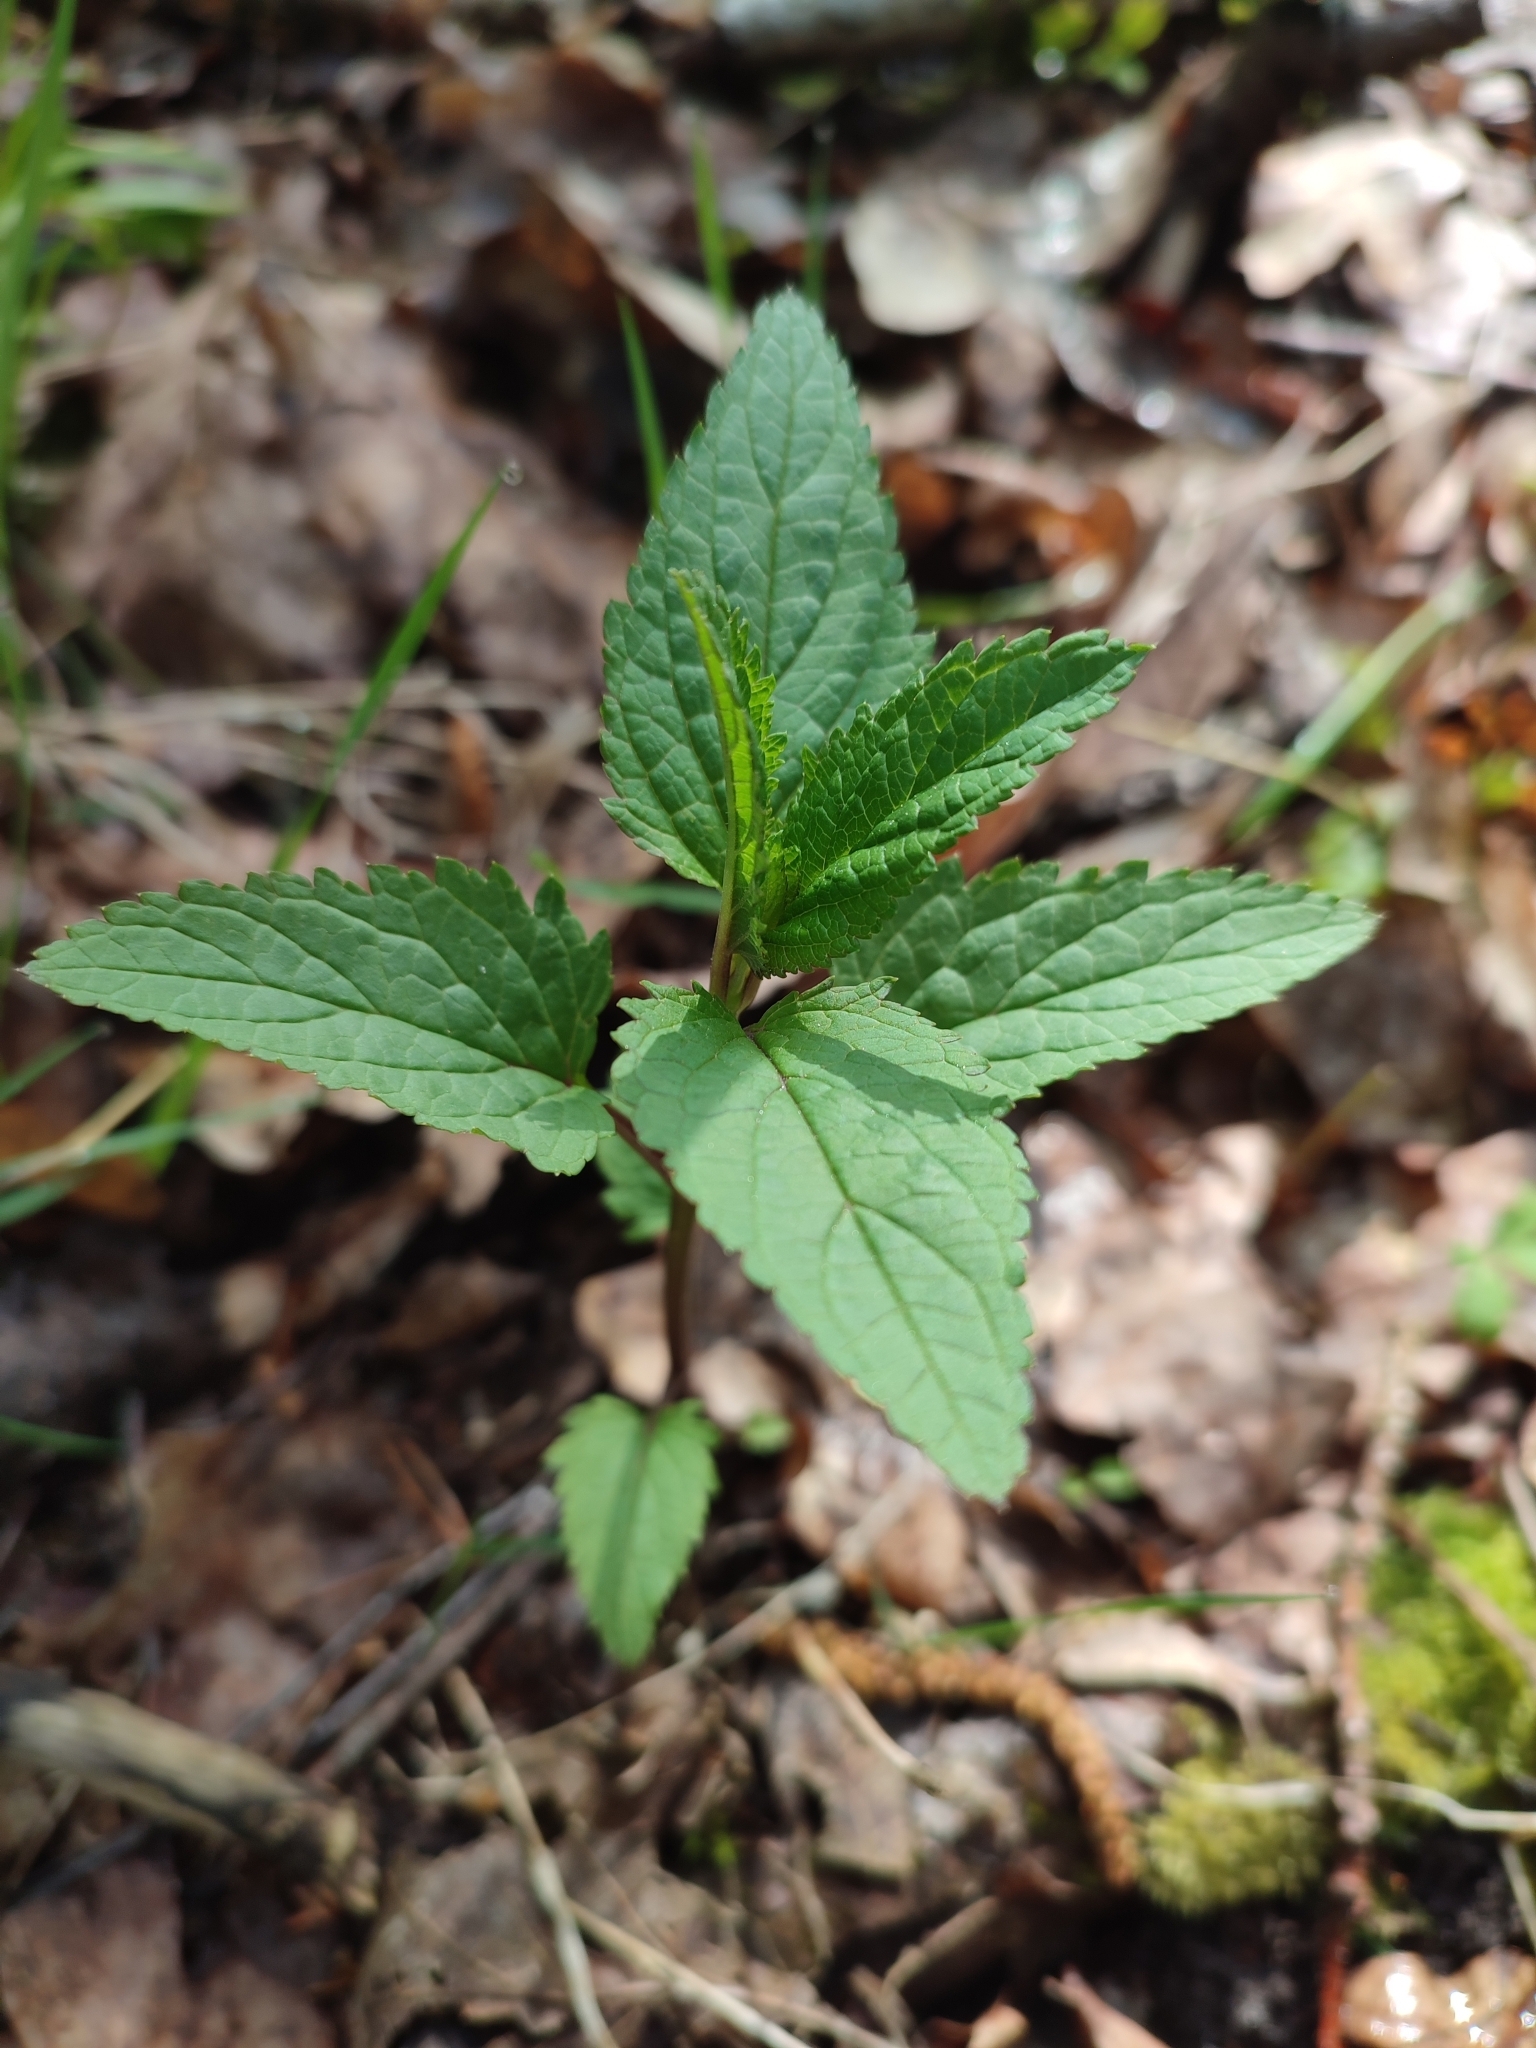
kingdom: Plantae
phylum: Tracheophyta
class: Magnoliopsida
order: Lamiales
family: Scrophulariaceae
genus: Scrophularia
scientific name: Scrophularia nodosa
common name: Common figwort
